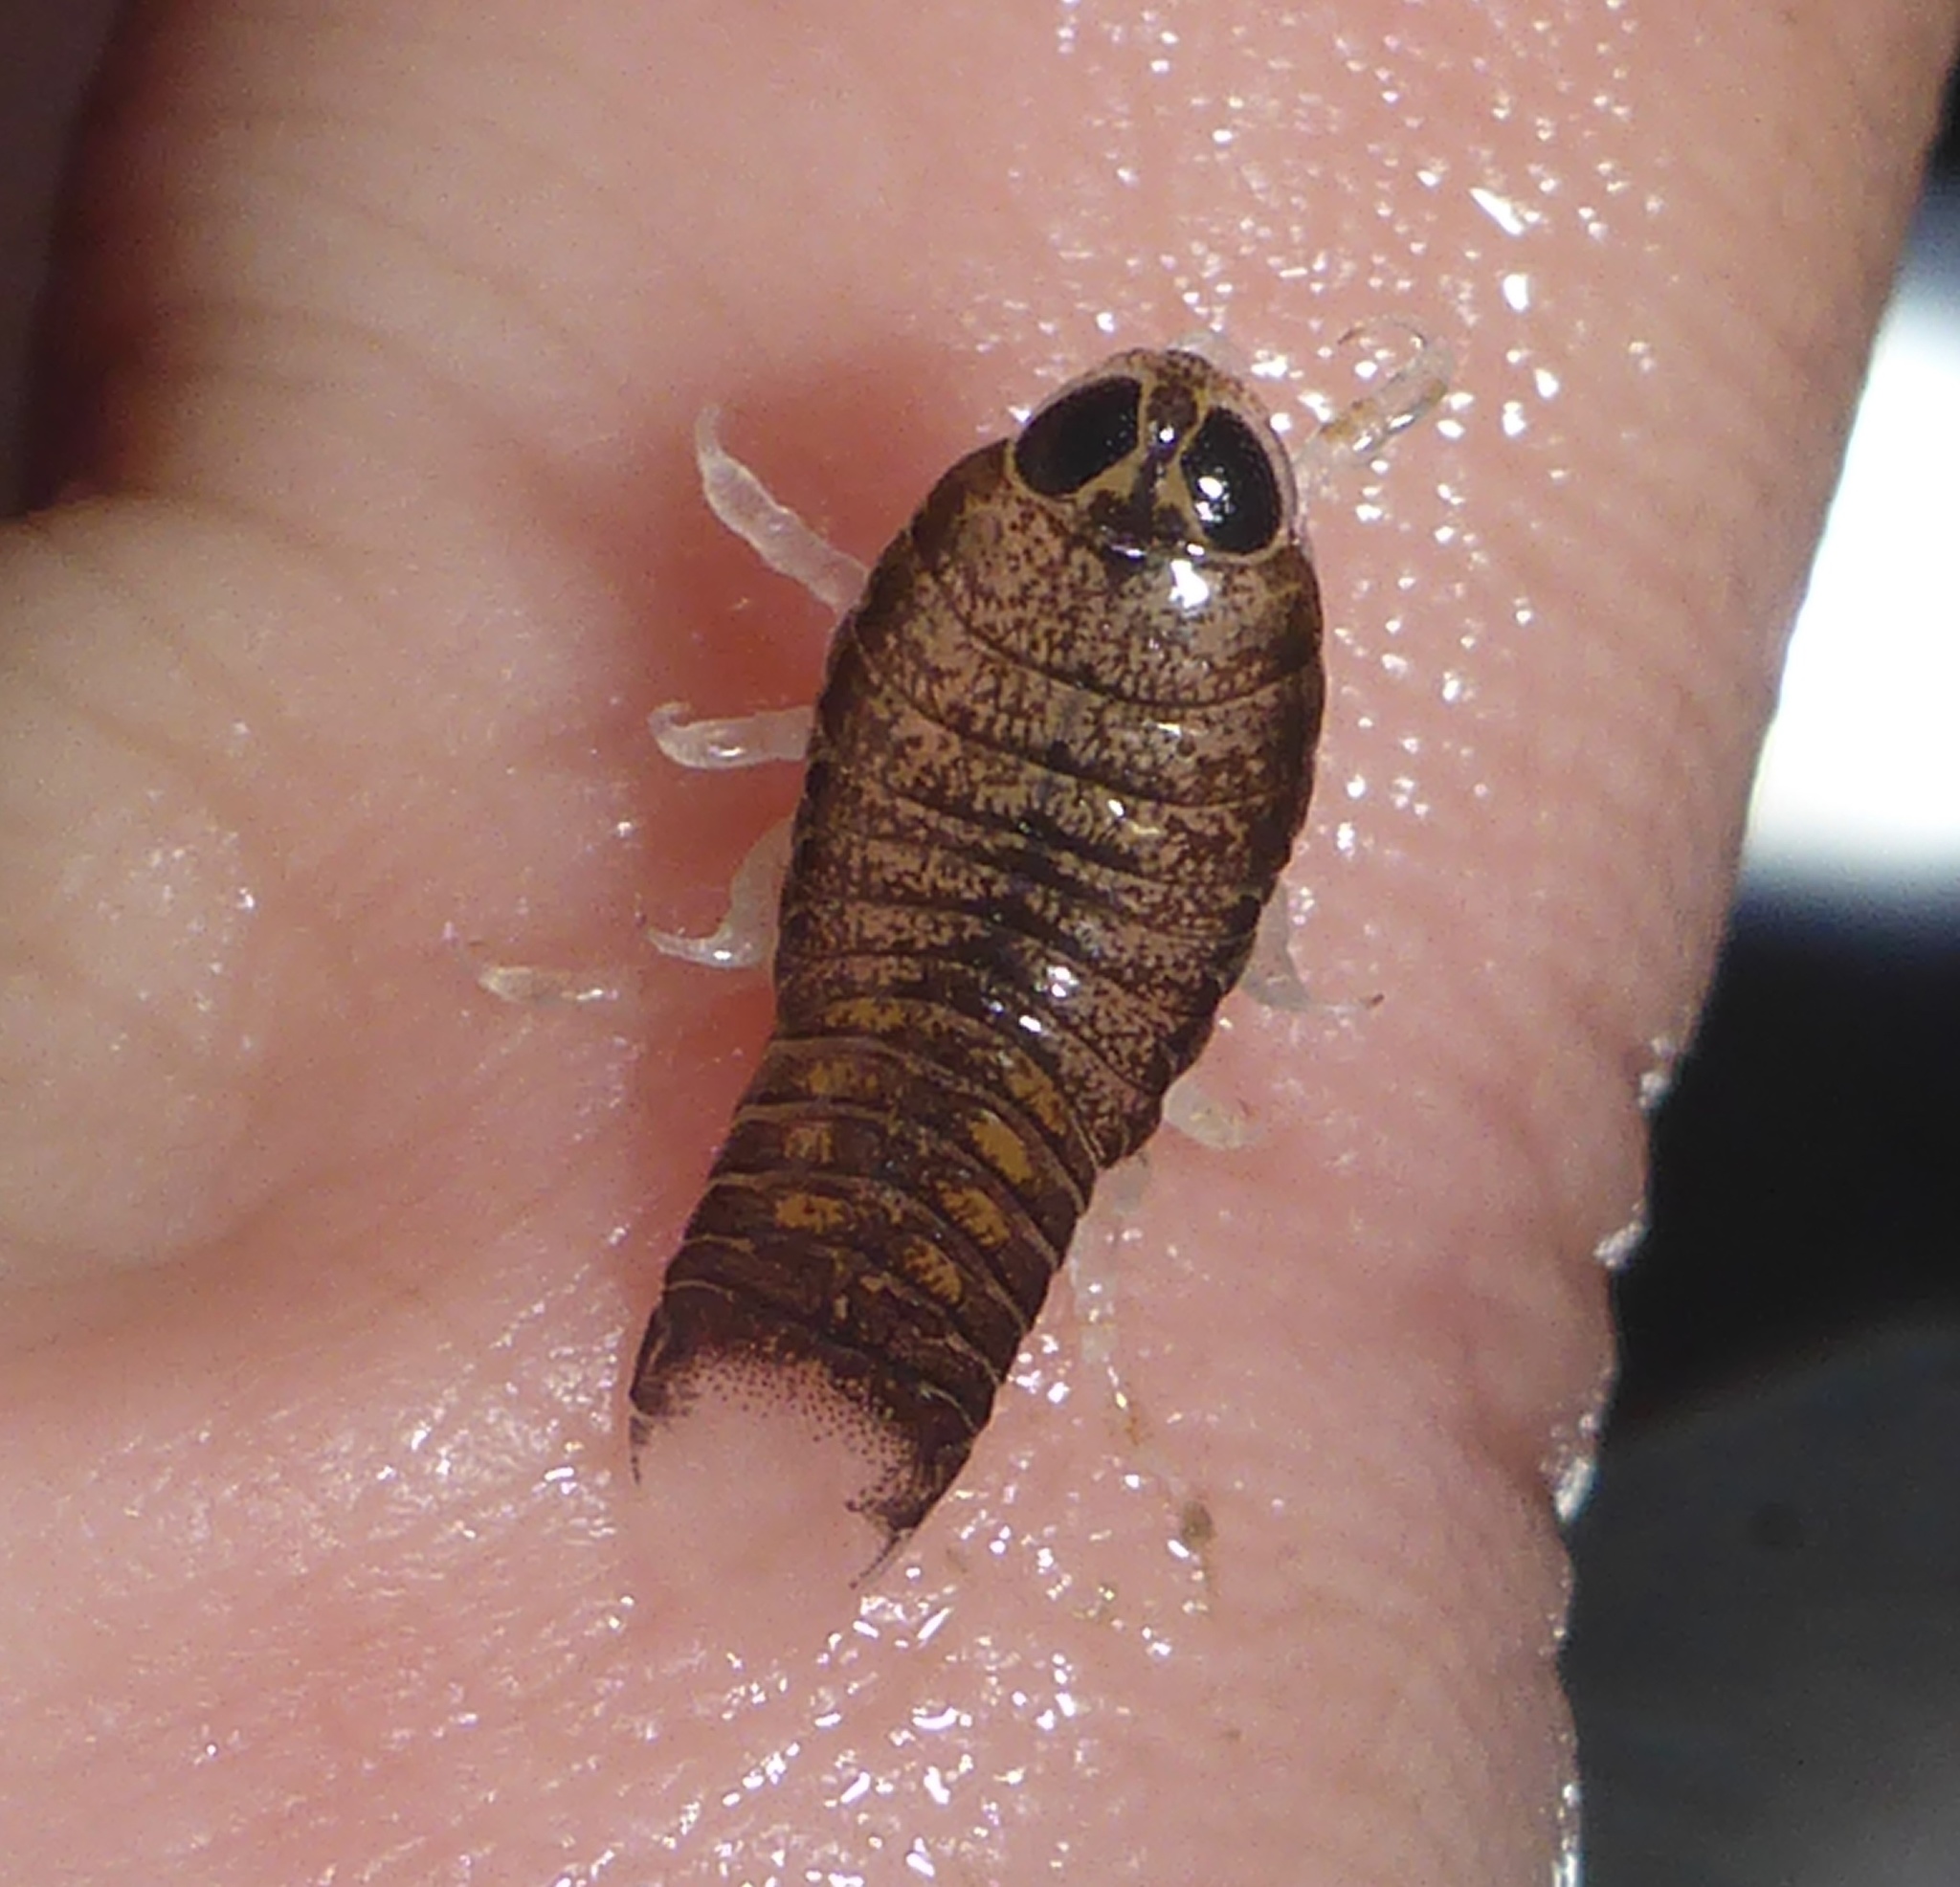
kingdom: Animalia
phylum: Arthropoda
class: Malacostraca
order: Isopoda
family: Cirolanidae
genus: Eurydice
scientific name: Eurydice caudata
